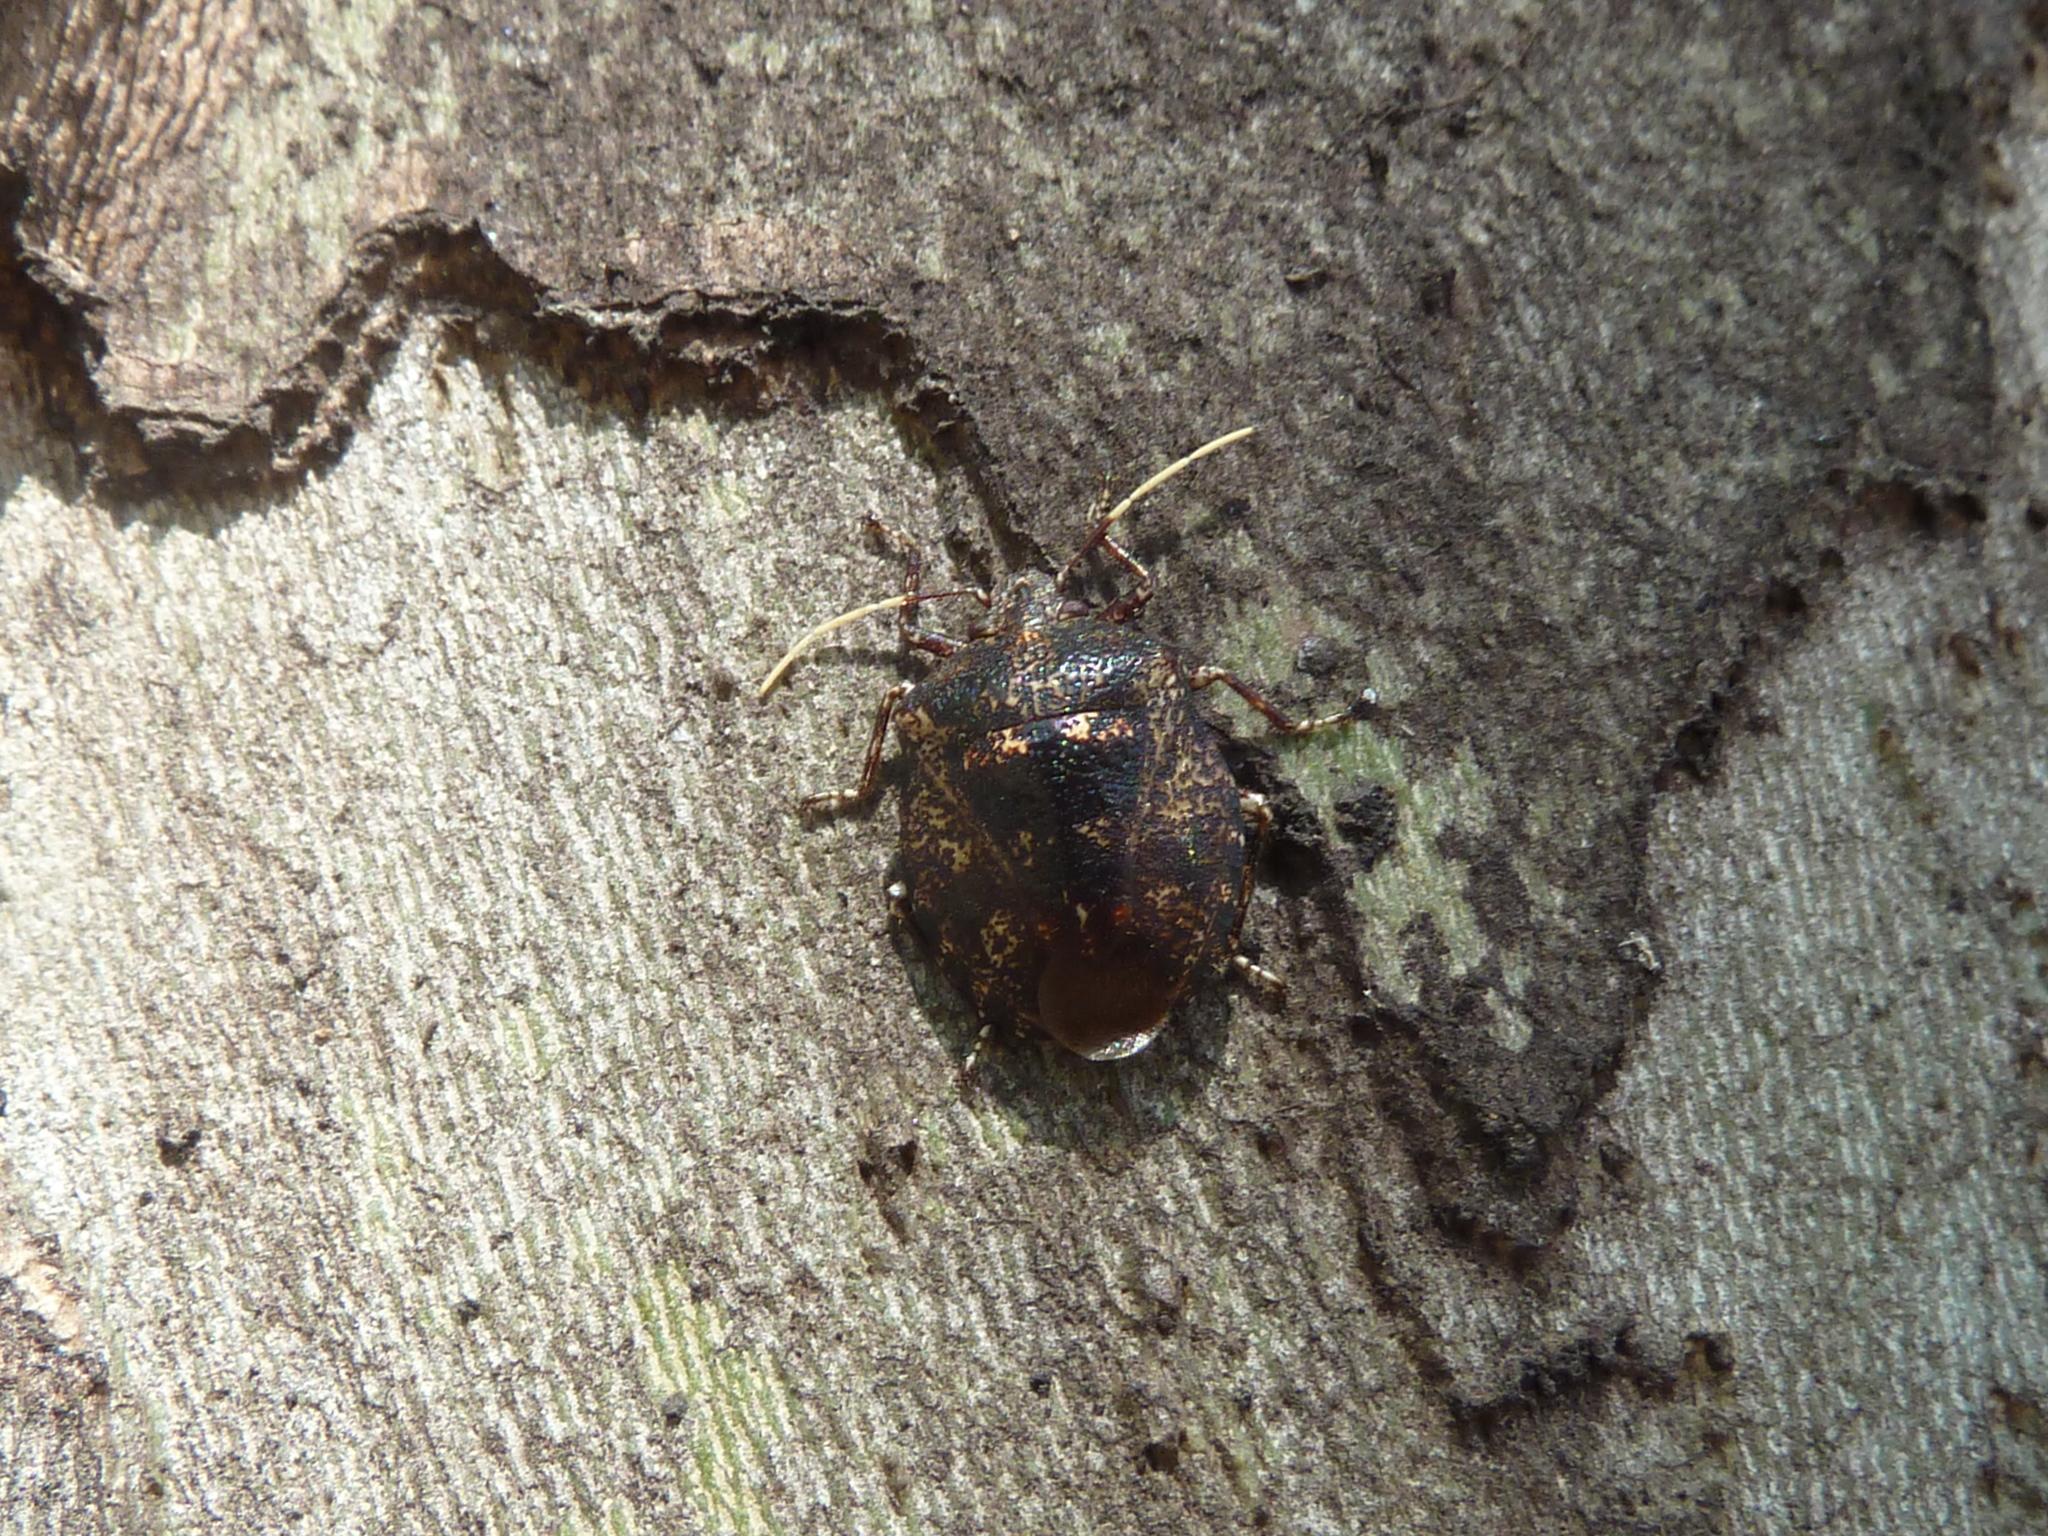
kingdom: Animalia
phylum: Arthropoda
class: Insecta
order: Hemiptera
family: Pentatomidae
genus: Antiteuchus
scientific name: Antiteuchus mixtus
